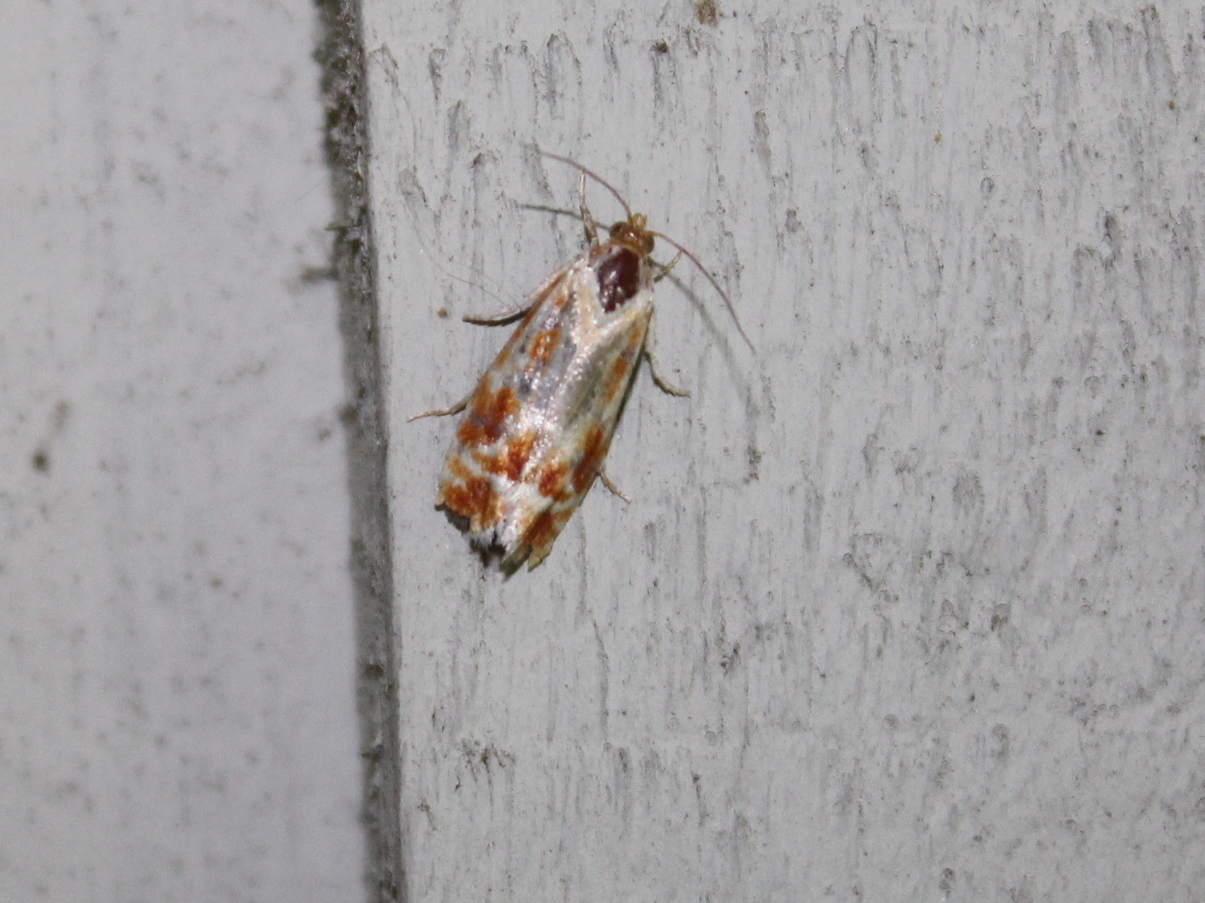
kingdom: Animalia
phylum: Arthropoda
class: Insecta
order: Lepidoptera
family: Tortricidae
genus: Rhyacionia
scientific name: Rhyacionia buoliana
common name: European pine shoot moth
